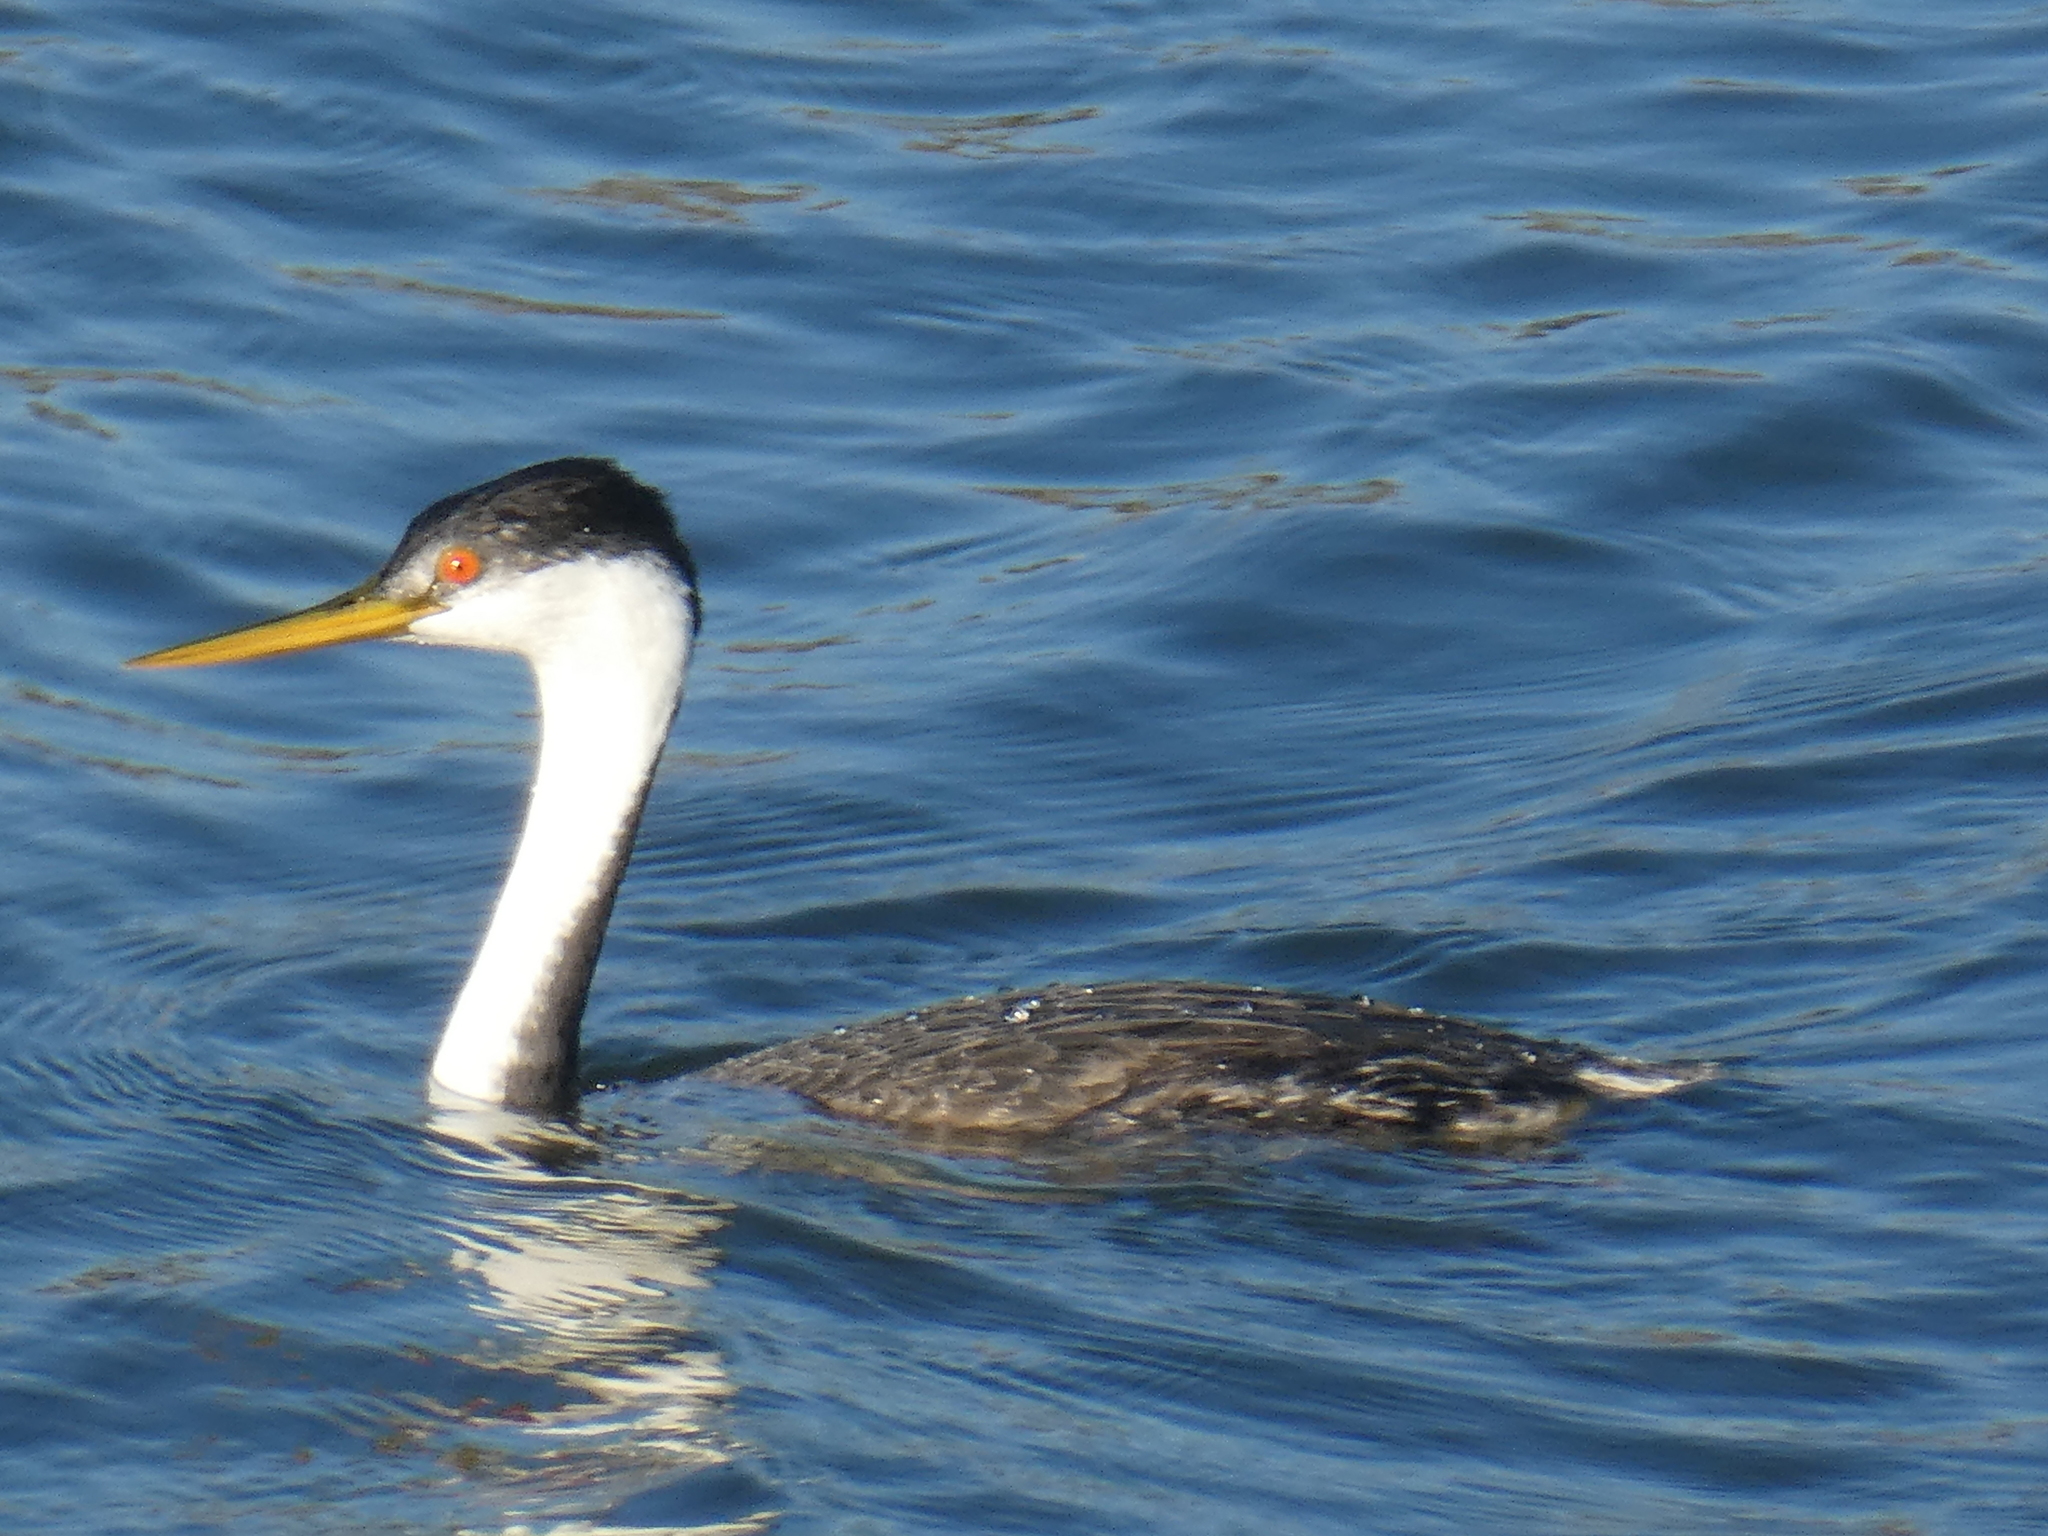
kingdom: Animalia
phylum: Chordata
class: Aves
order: Podicipediformes
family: Podicipedidae
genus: Aechmophorus
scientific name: Aechmophorus occidentalis
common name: Western grebe
